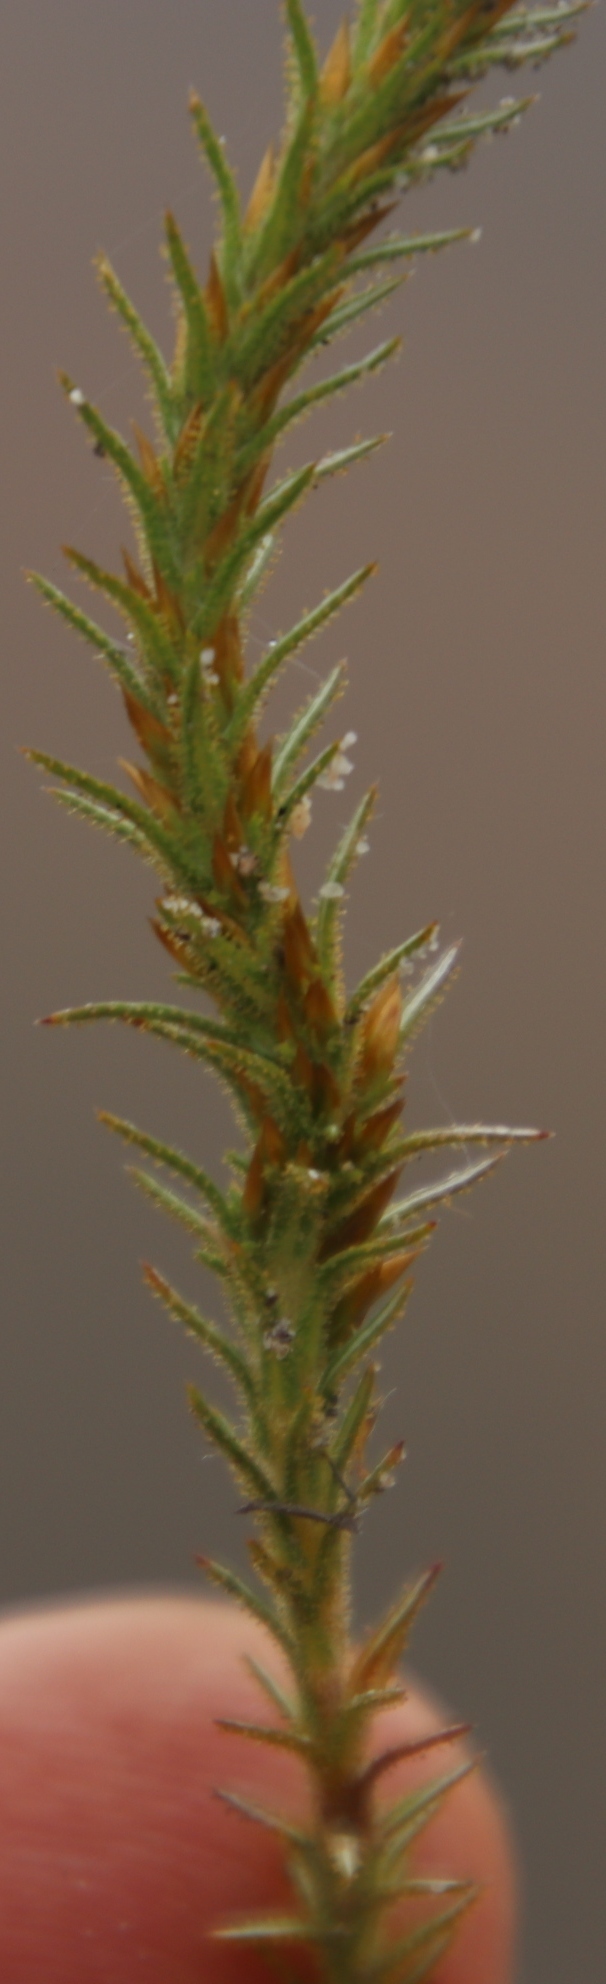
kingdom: Plantae
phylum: Tracheophyta
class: Magnoliopsida
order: Asterales
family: Asteraceae
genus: Myrovernix
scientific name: Myrovernix glandulosus
